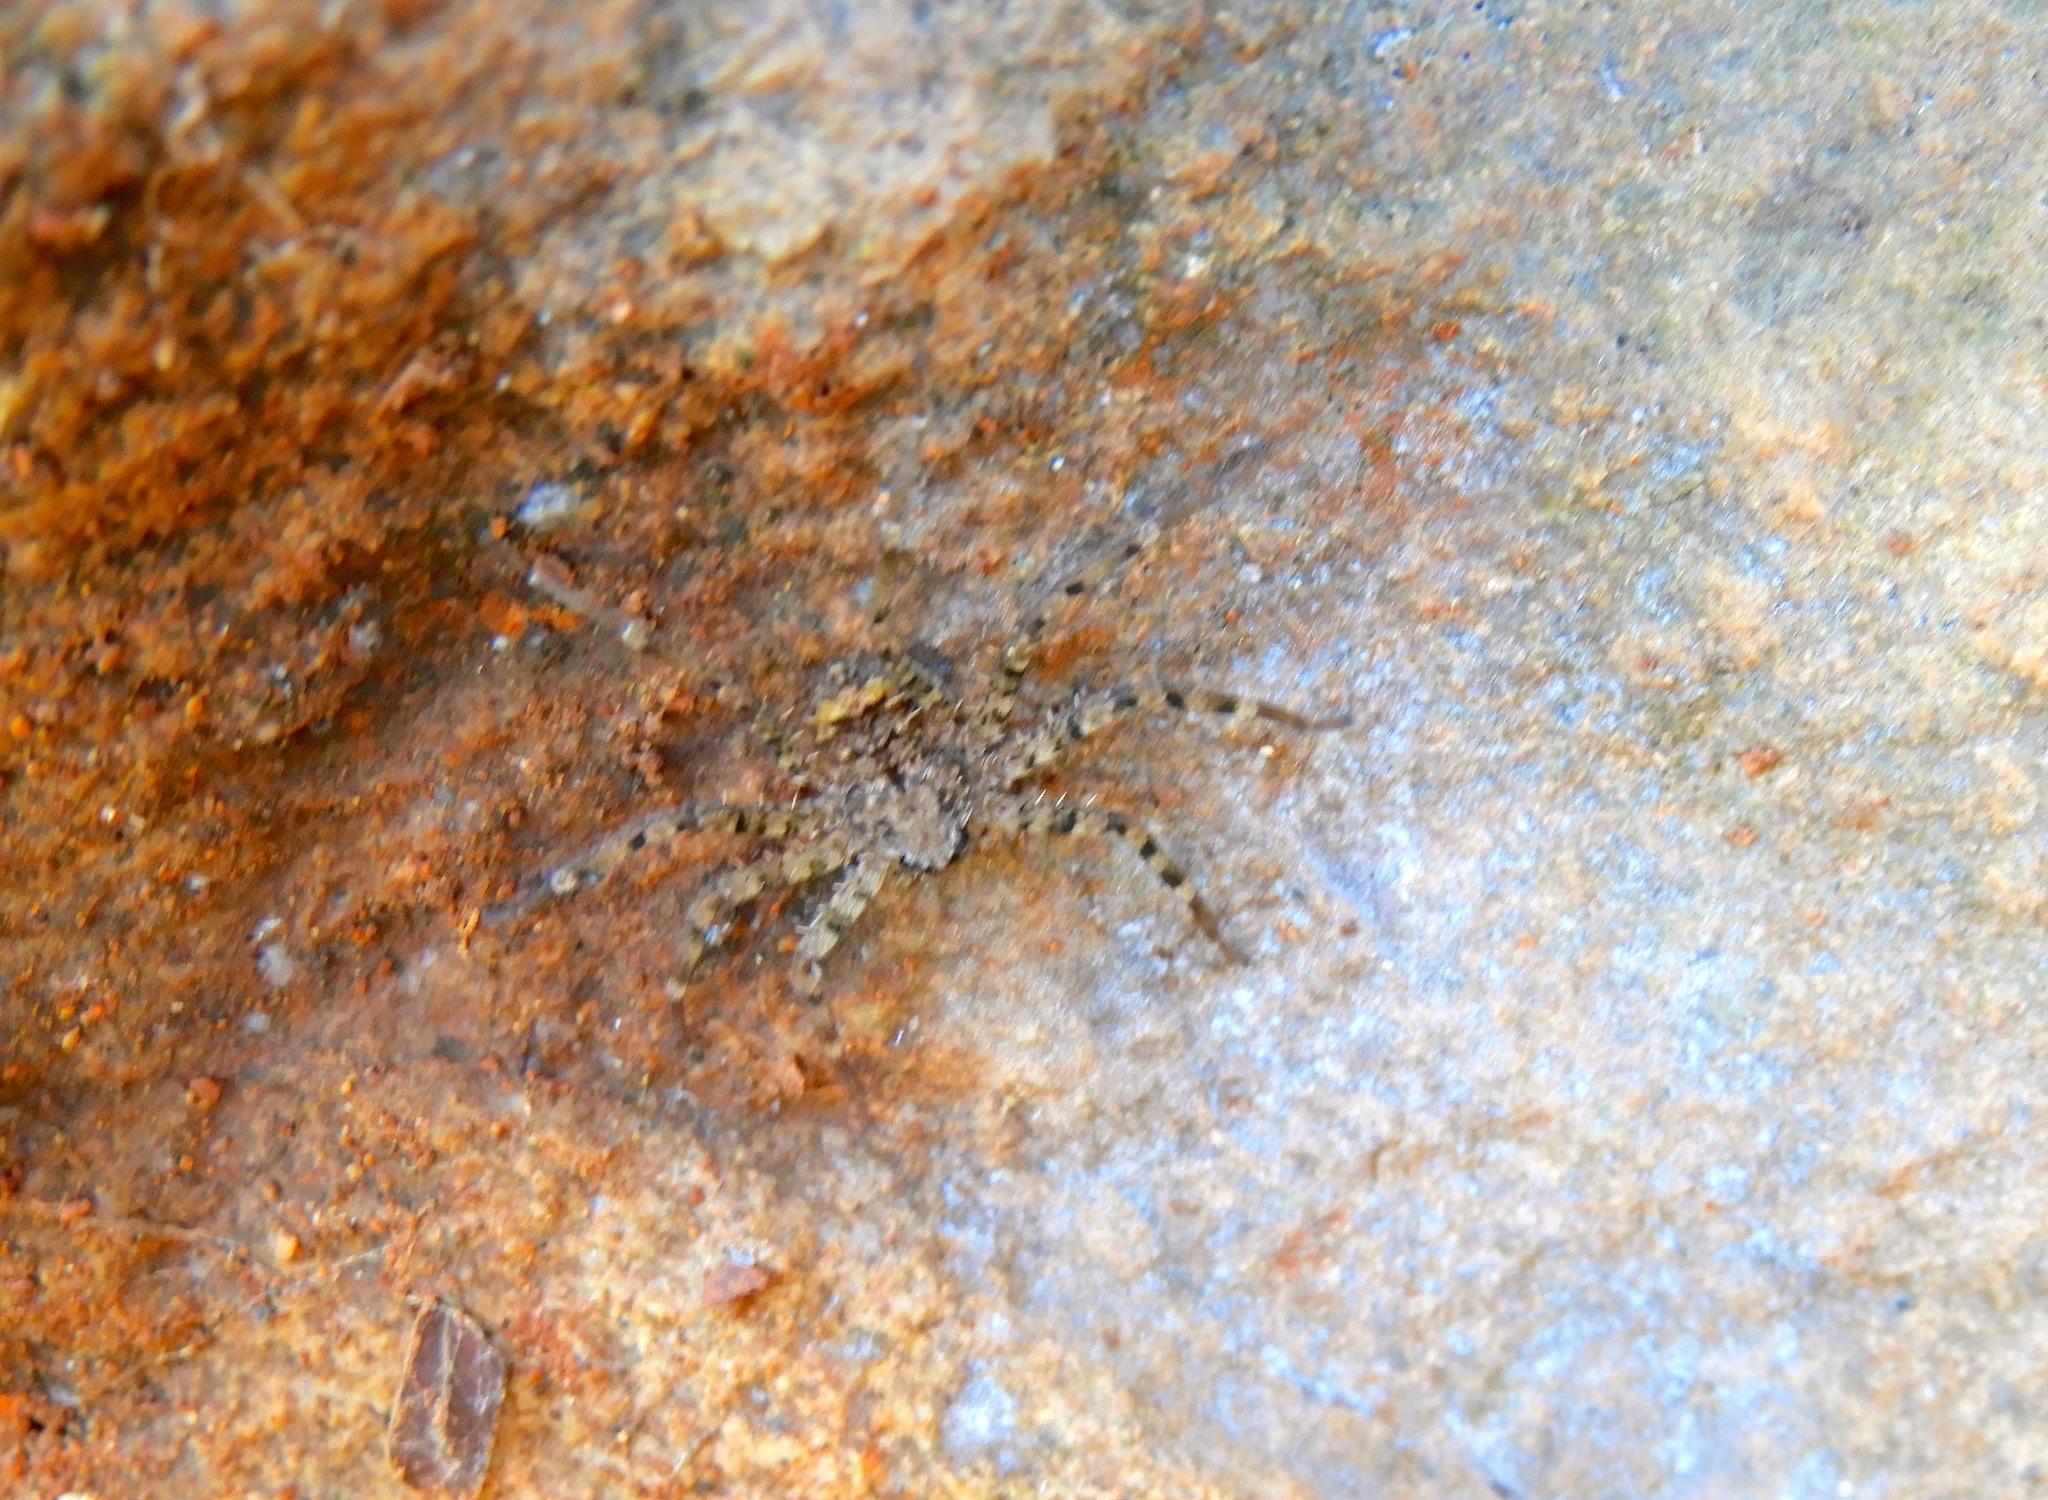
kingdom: Animalia
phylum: Arthropoda
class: Arachnida
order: Araneae
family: Selenopidae
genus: Selenops
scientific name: Selenops
